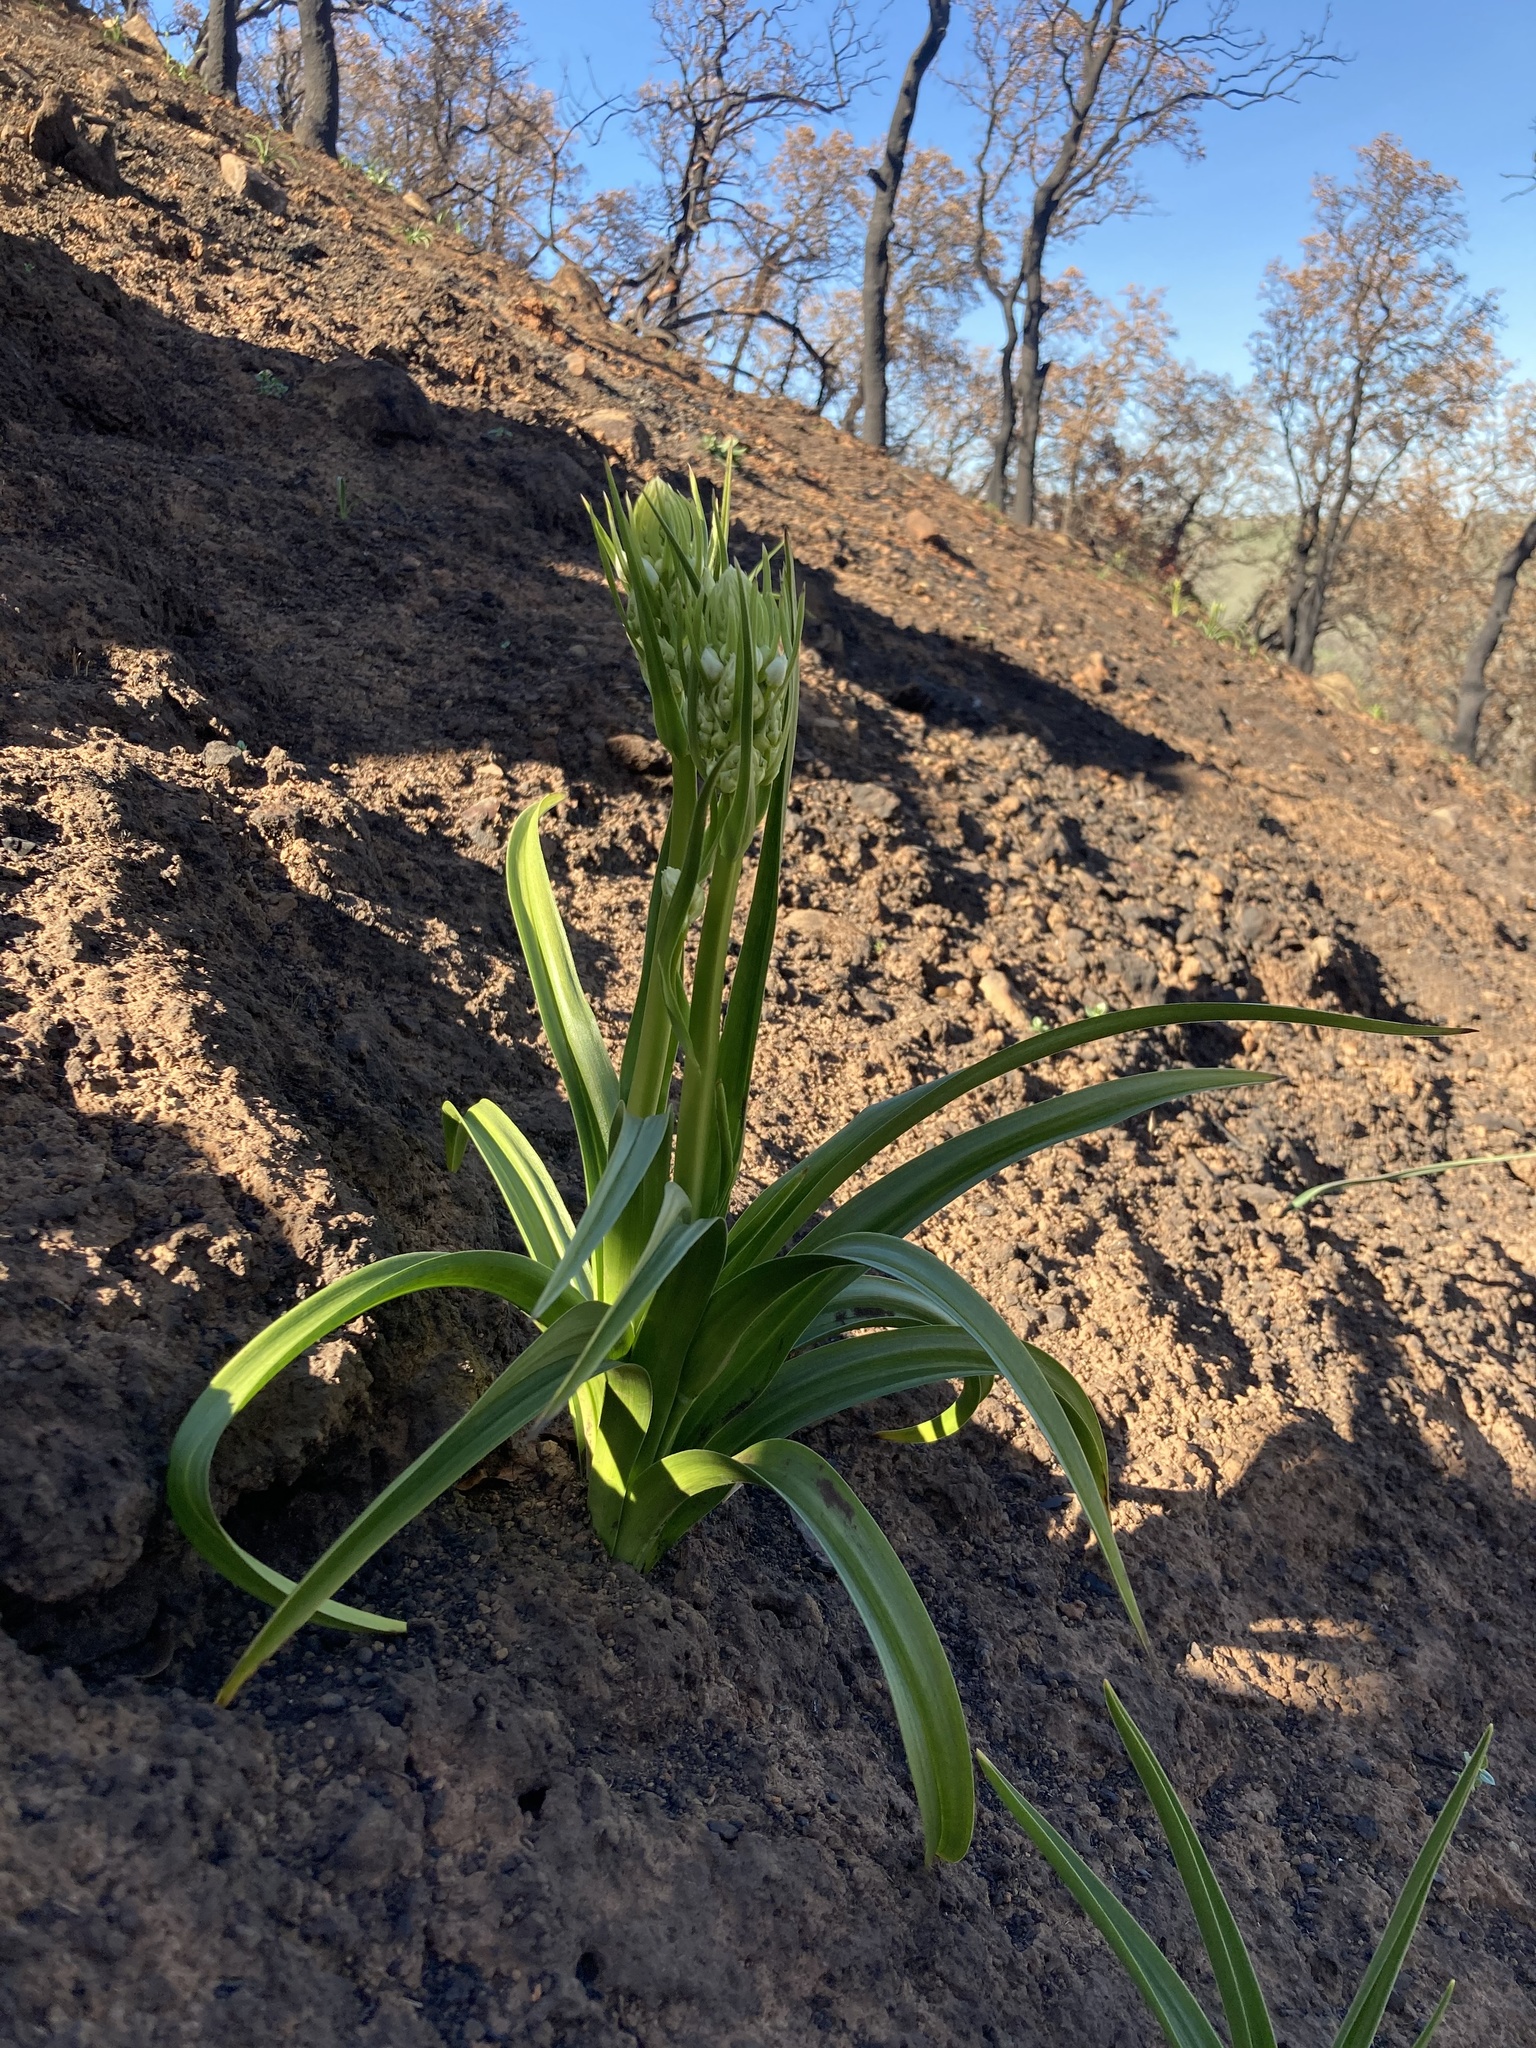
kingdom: Plantae
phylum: Tracheophyta
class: Liliopsida
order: Liliales
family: Melanthiaceae
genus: Toxicoscordion
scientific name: Toxicoscordion fremontii
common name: Fremont's death camas
